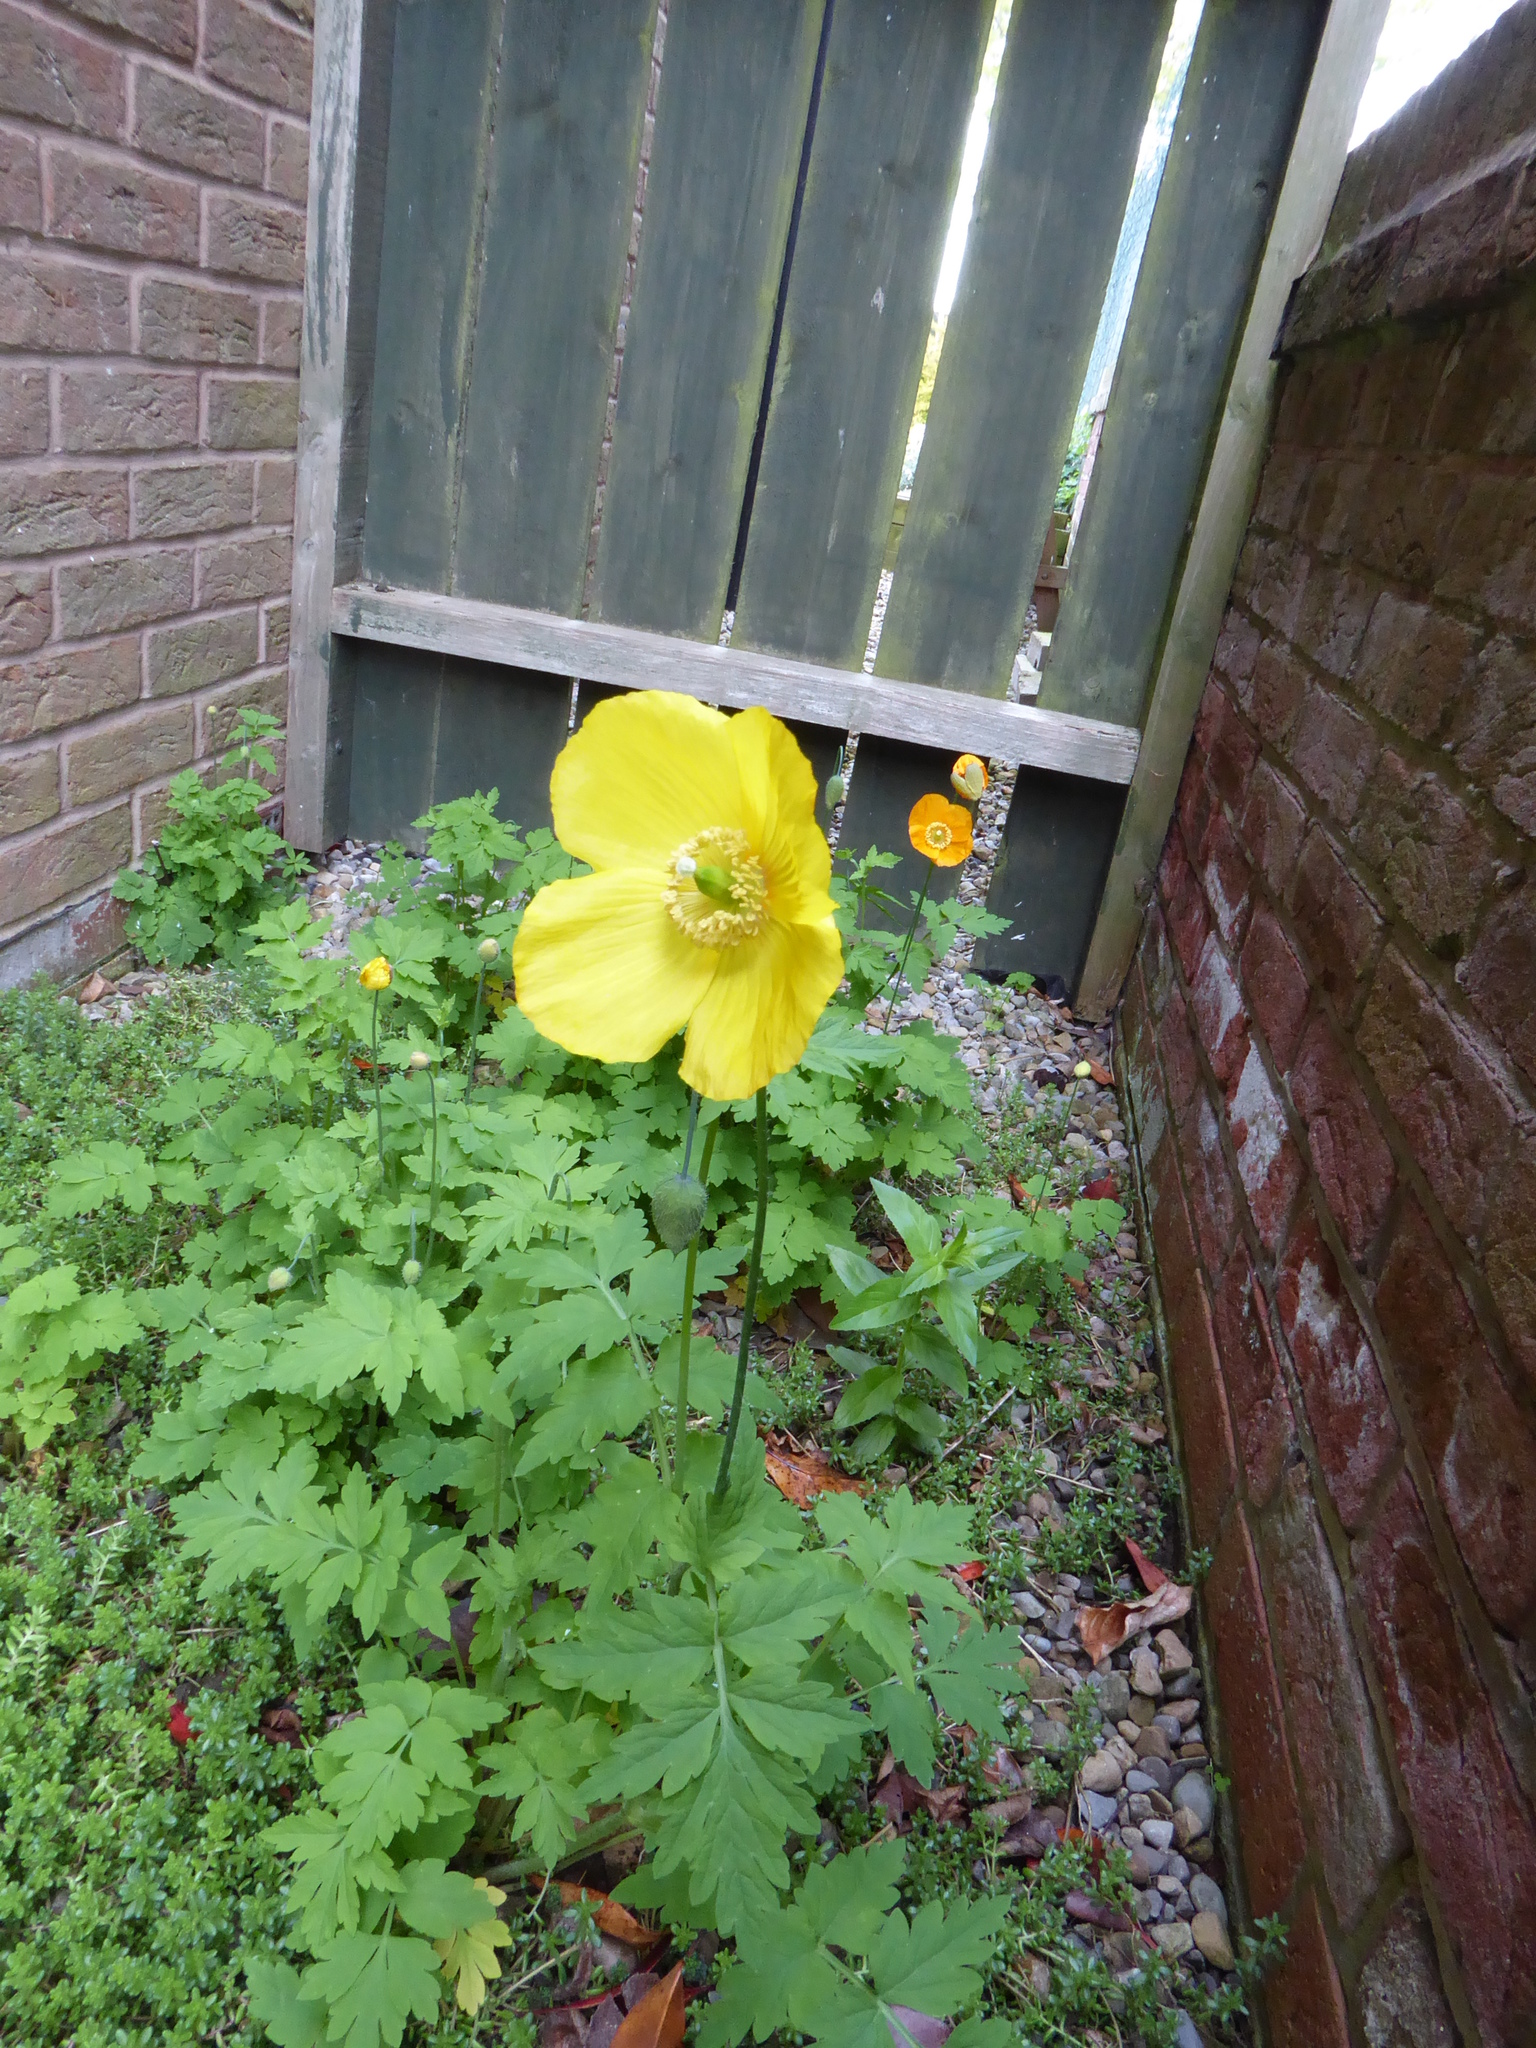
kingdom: Plantae
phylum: Tracheophyta
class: Magnoliopsida
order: Ranunculales
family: Papaveraceae
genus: Papaver
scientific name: Papaver cambricum
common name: Poppy
